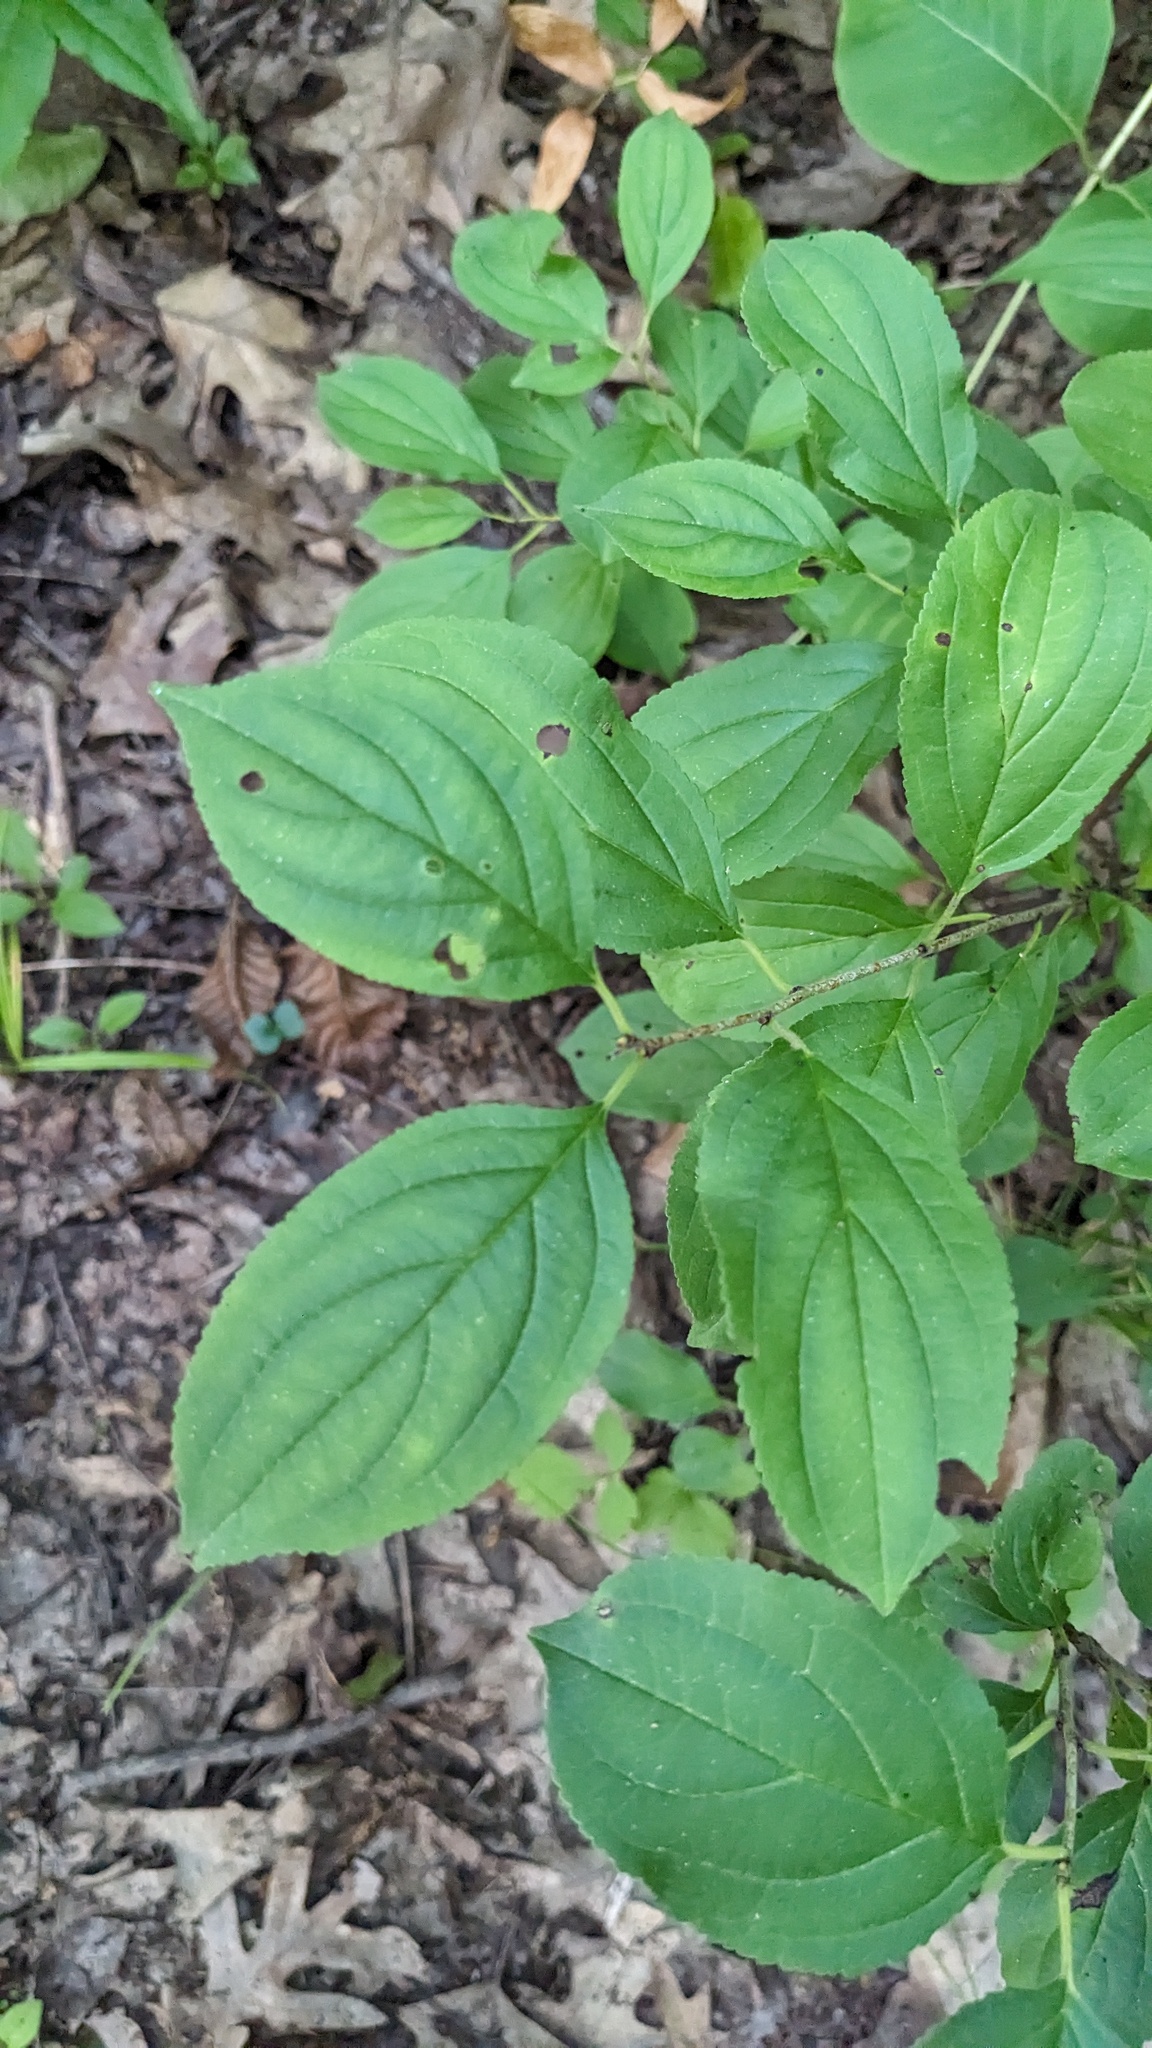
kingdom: Plantae
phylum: Tracheophyta
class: Magnoliopsida
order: Rosales
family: Rhamnaceae
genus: Rhamnus
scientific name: Rhamnus cathartica
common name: Common buckthorn
